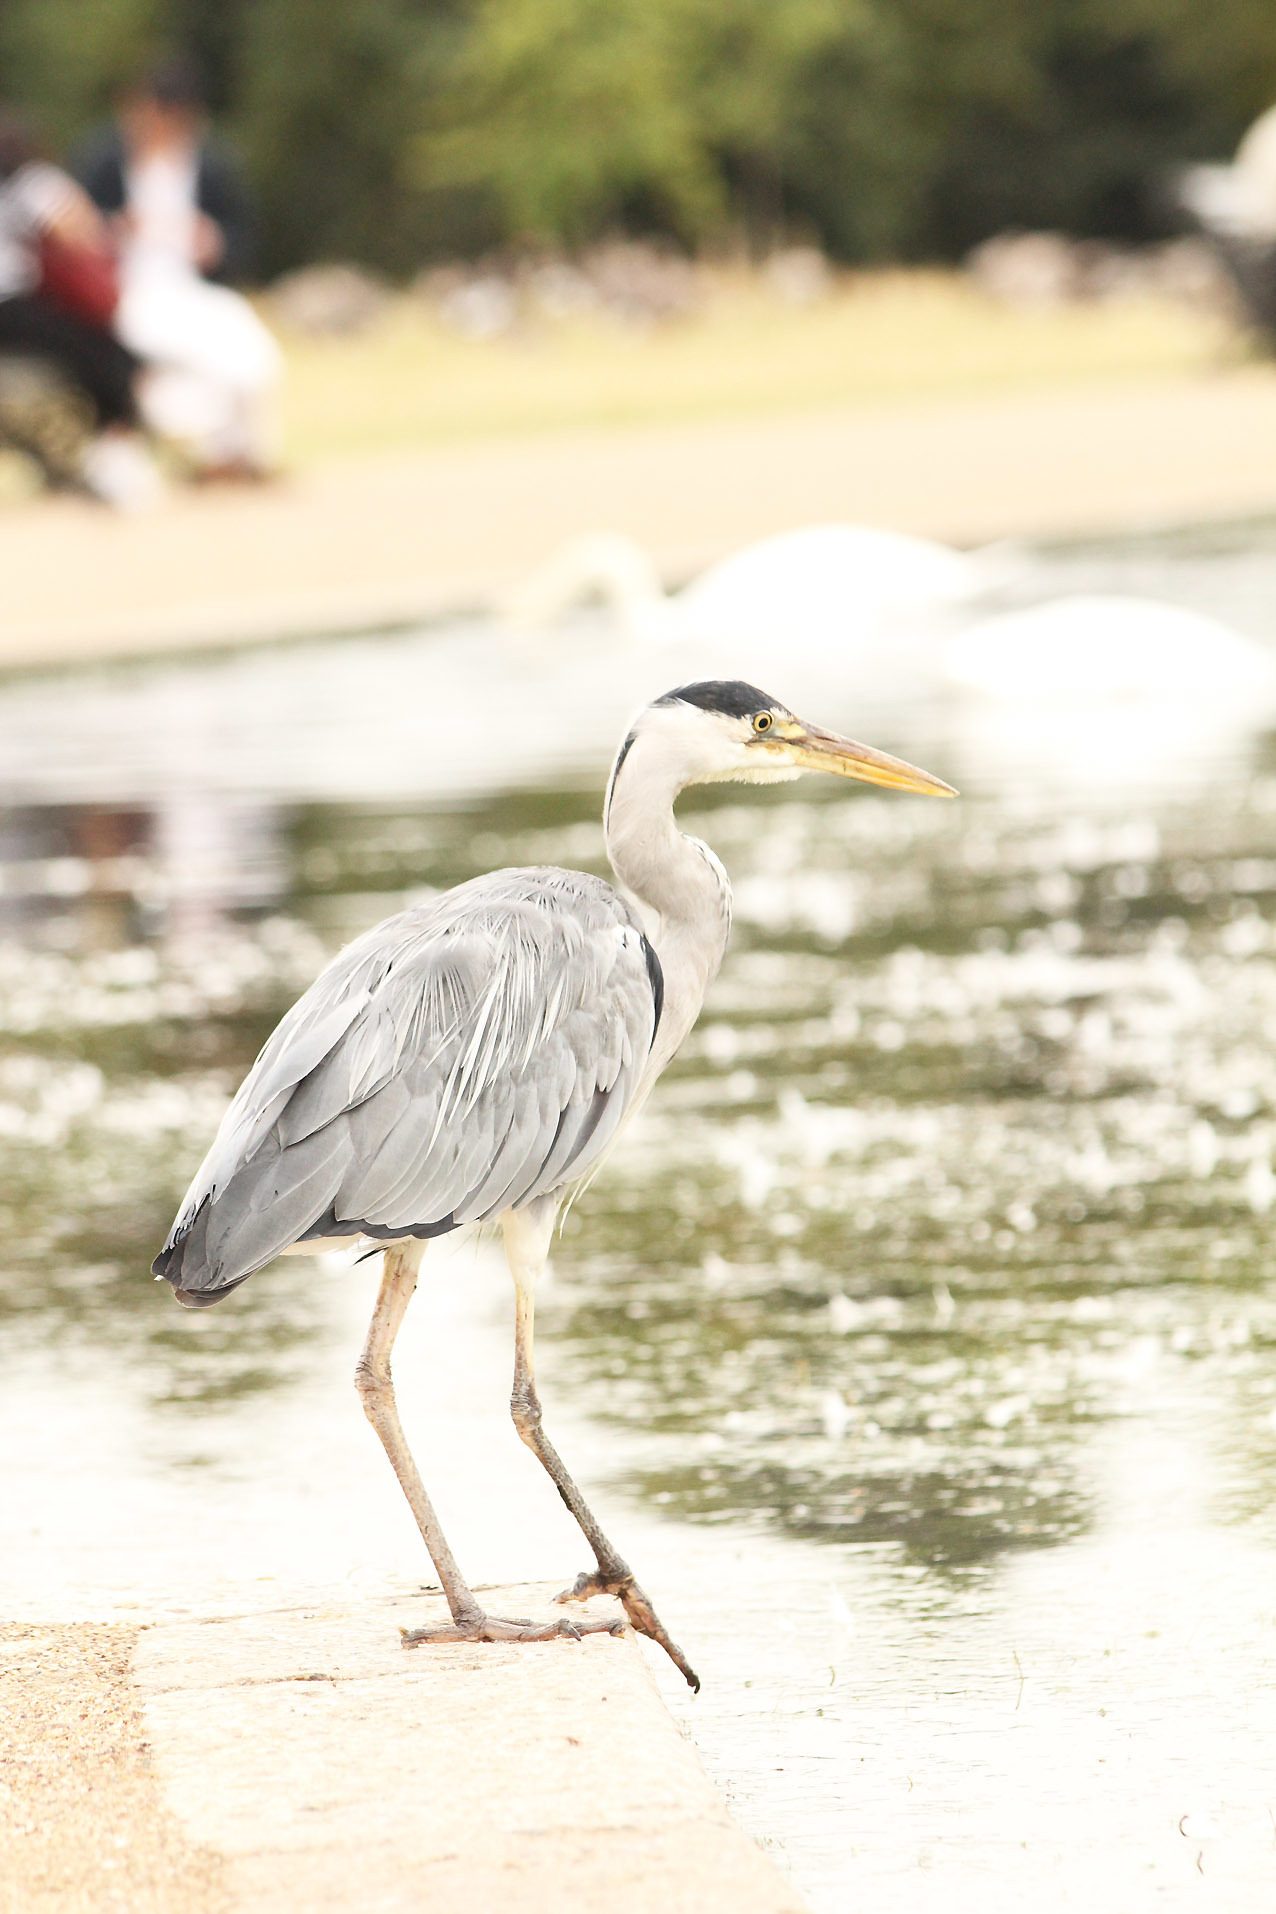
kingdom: Animalia
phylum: Chordata
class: Aves
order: Pelecaniformes
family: Ardeidae
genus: Ardea
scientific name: Ardea cinerea
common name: Grey heron
